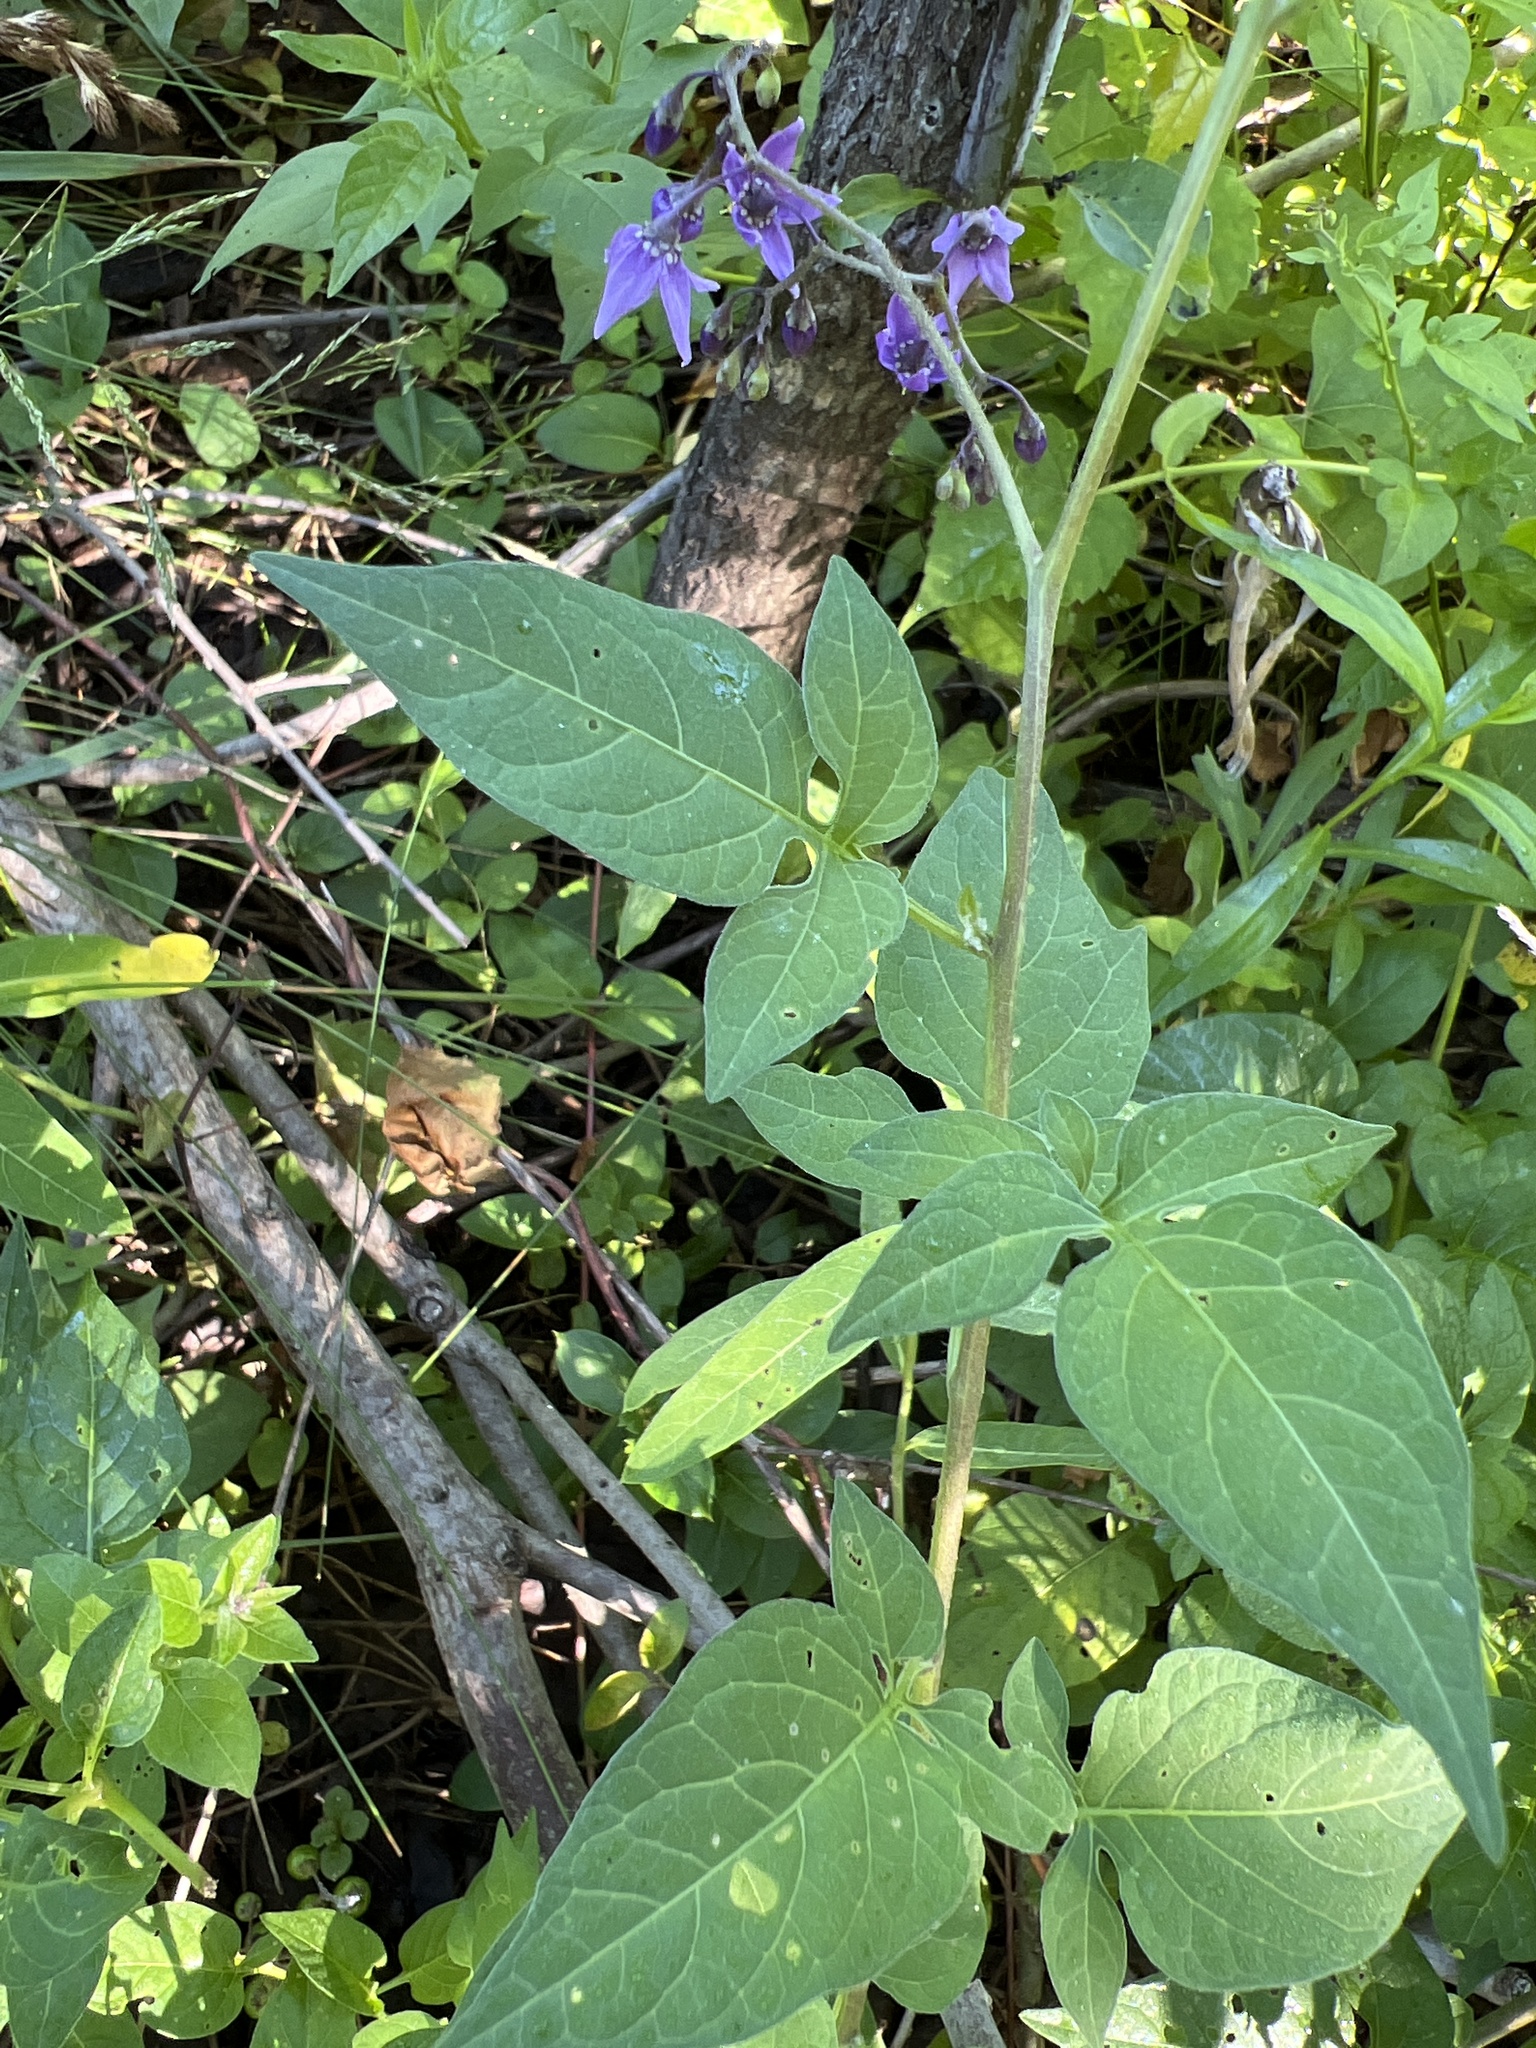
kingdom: Plantae
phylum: Tracheophyta
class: Magnoliopsida
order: Solanales
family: Solanaceae
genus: Solanum
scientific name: Solanum dulcamara
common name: Climbing nightshade
